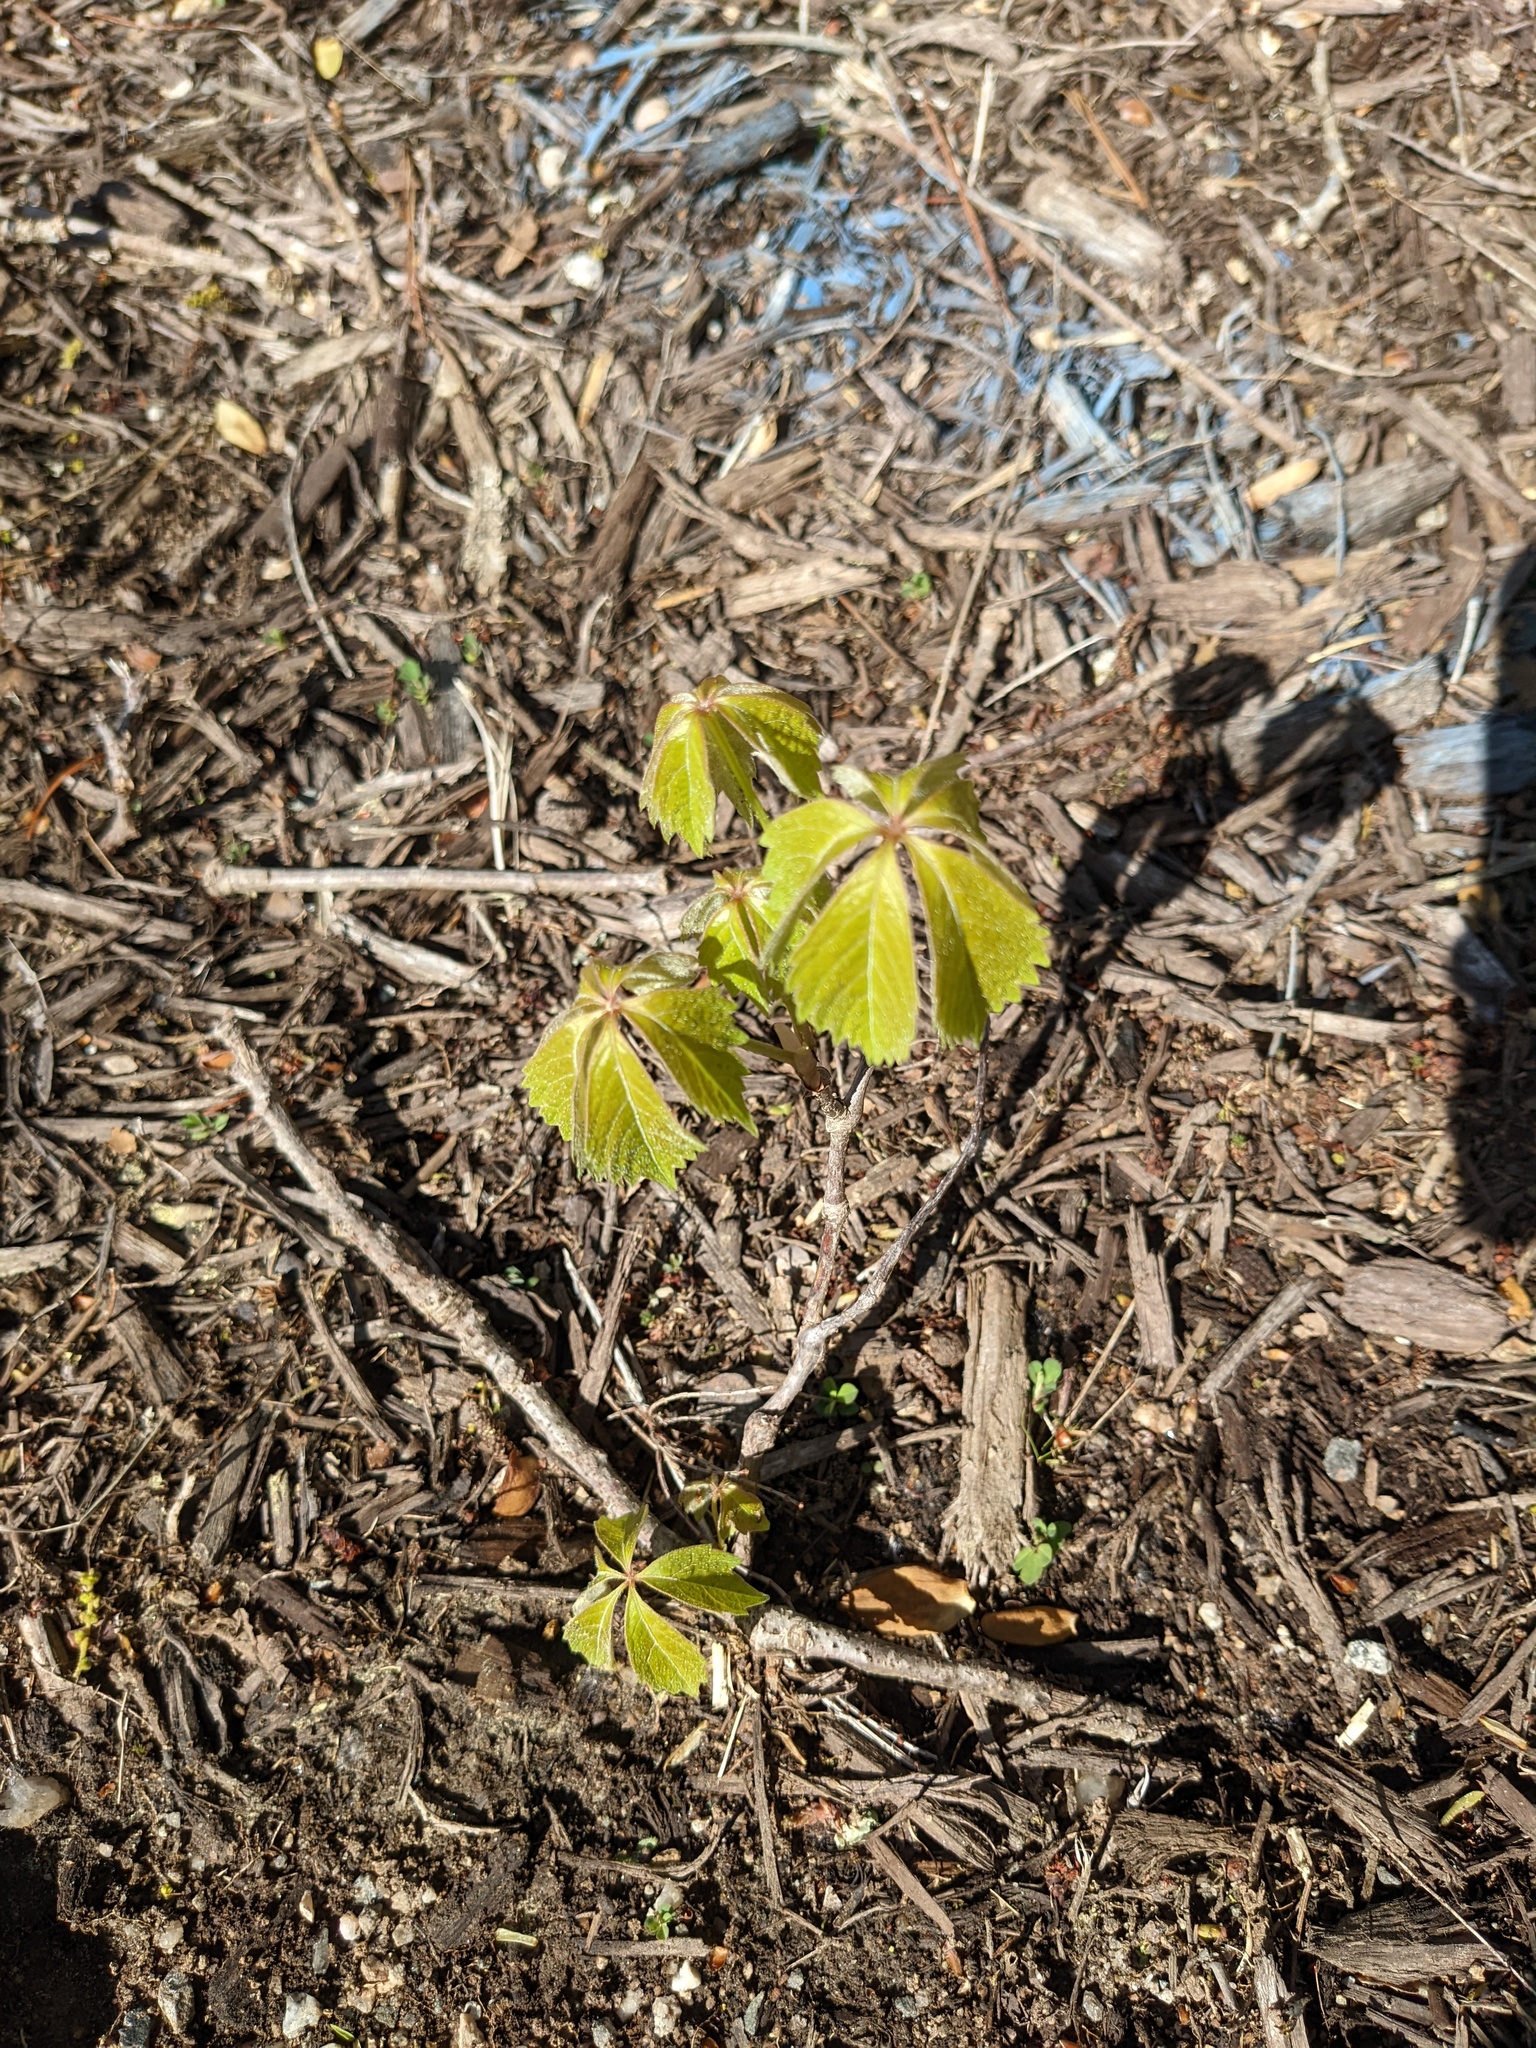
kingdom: Plantae
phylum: Tracheophyta
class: Magnoliopsida
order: Vitales
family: Vitaceae
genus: Parthenocissus
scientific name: Parthenocissus quinquefolia
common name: Virginia-creeper
